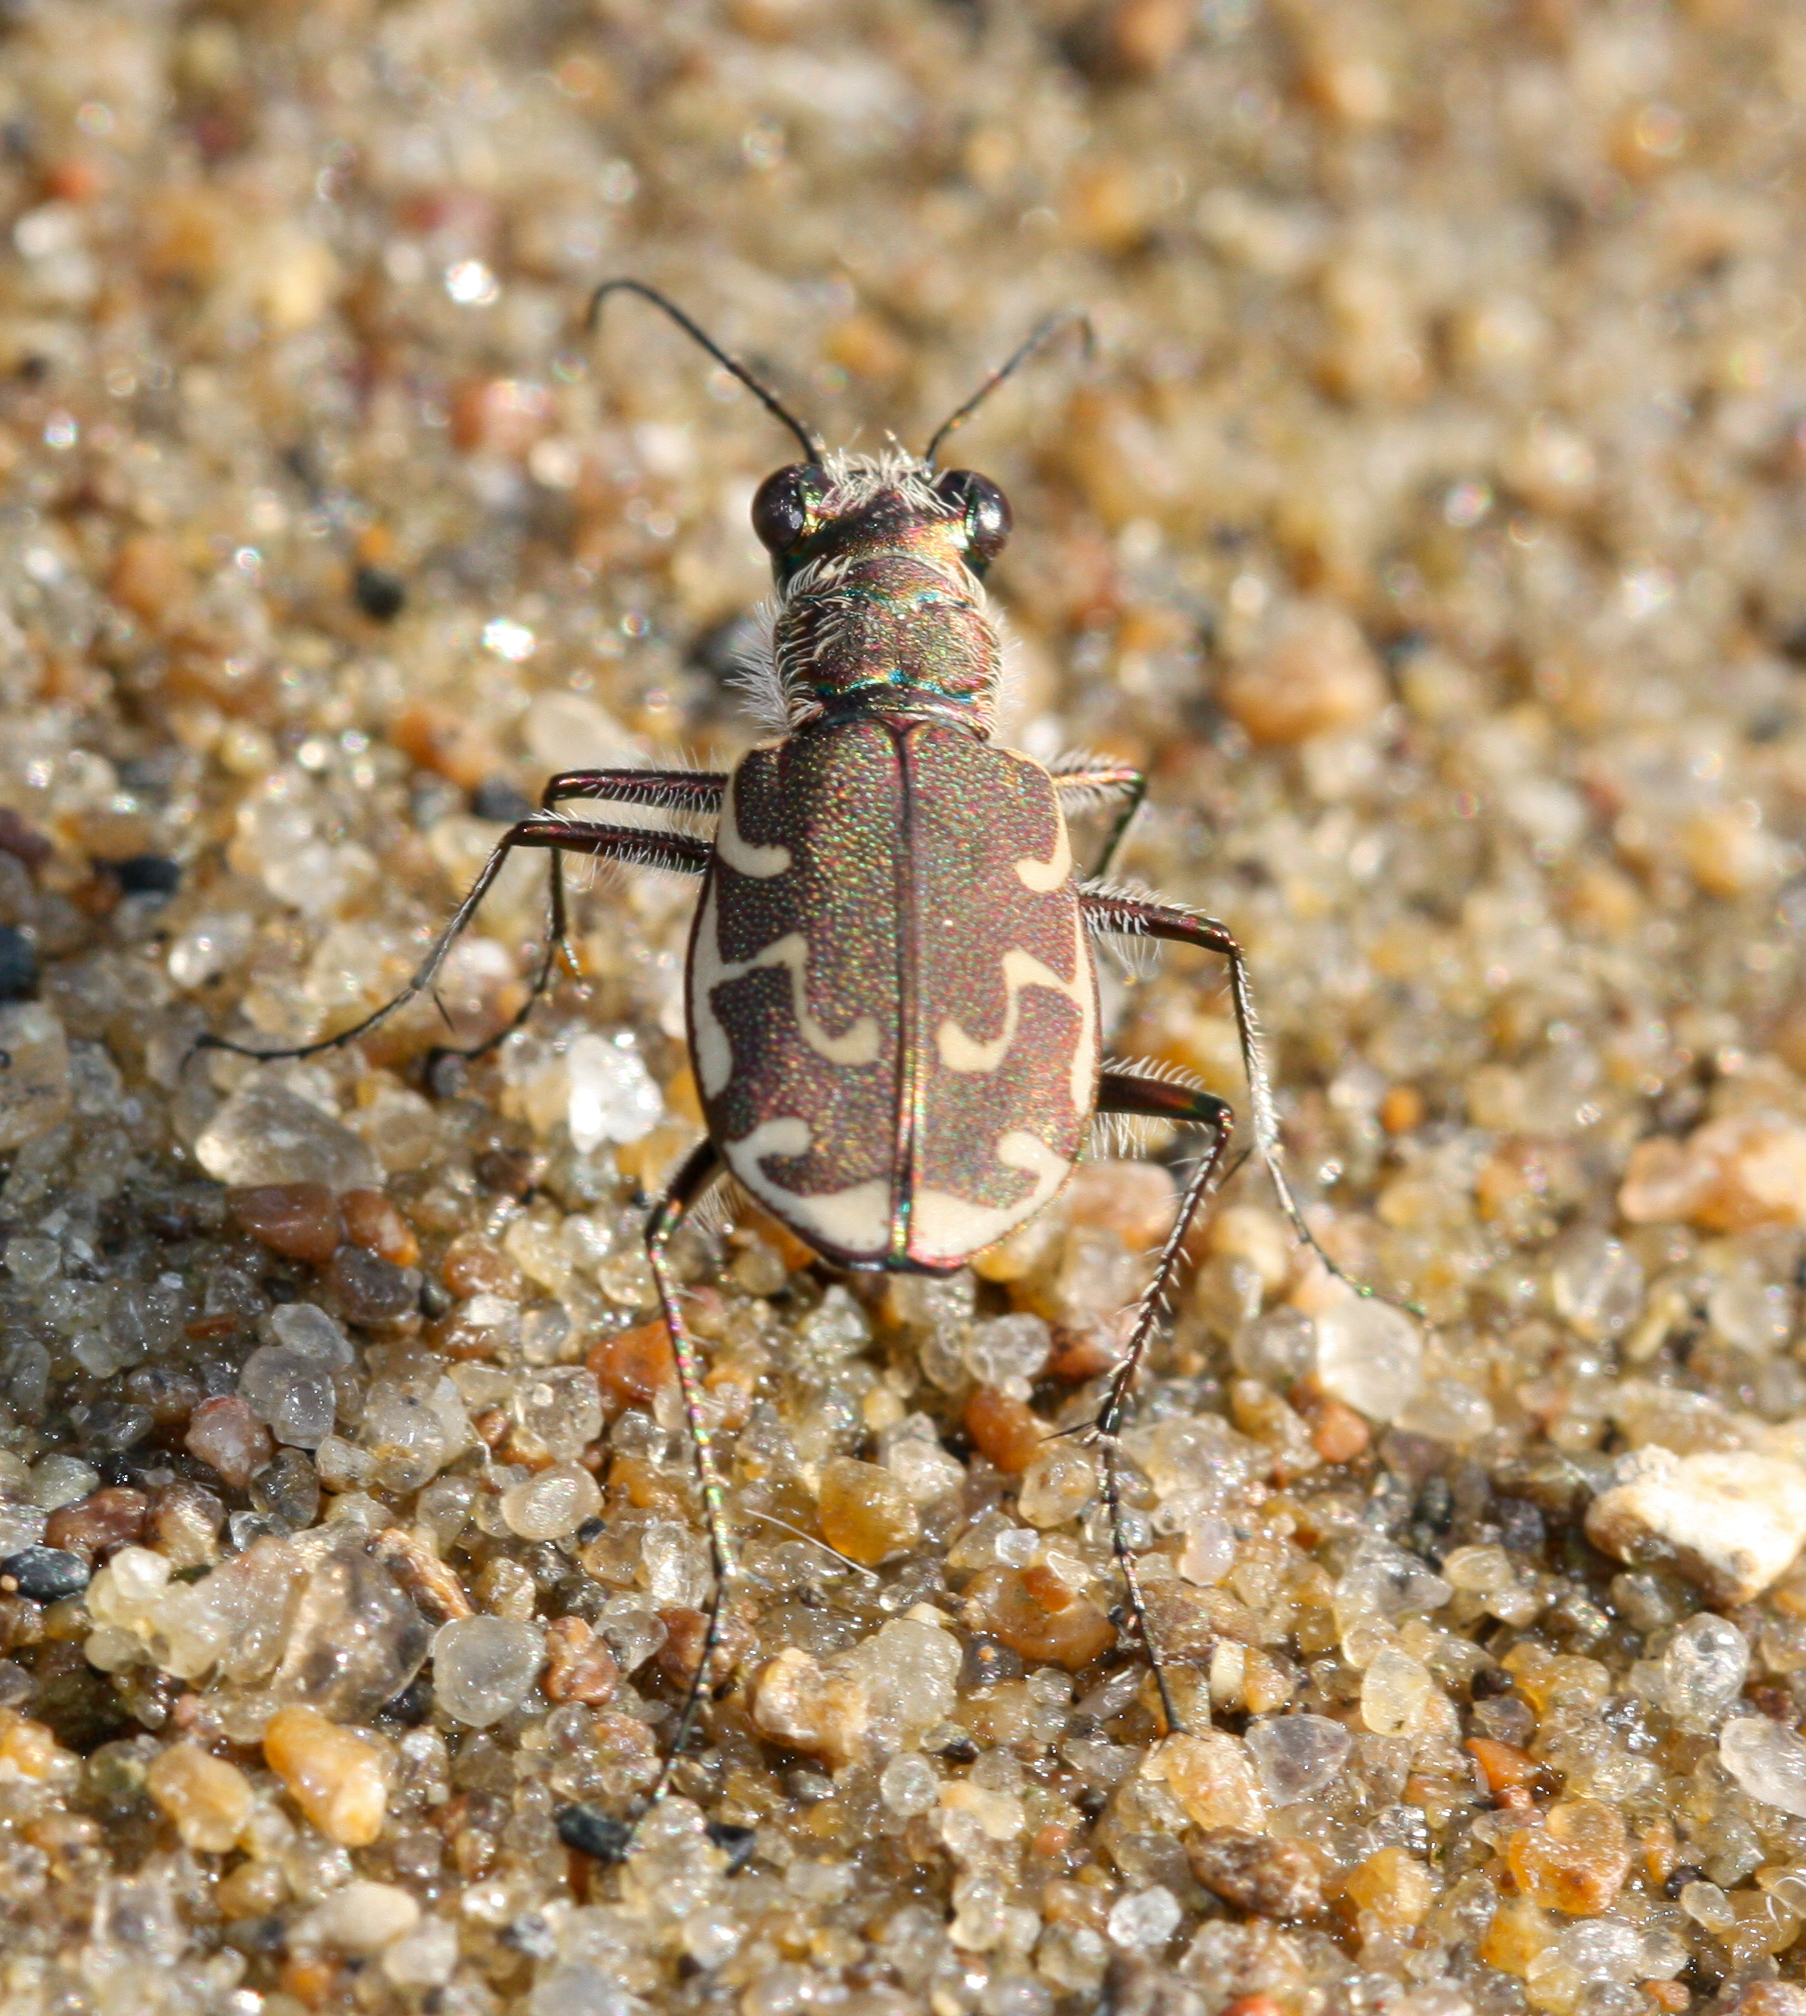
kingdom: Animalia
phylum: Arthropoda
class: Insecta
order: Coleoptera
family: Carabidae
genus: Cicindela
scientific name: Cicindela repanda
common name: Bronzed tiger beetle
